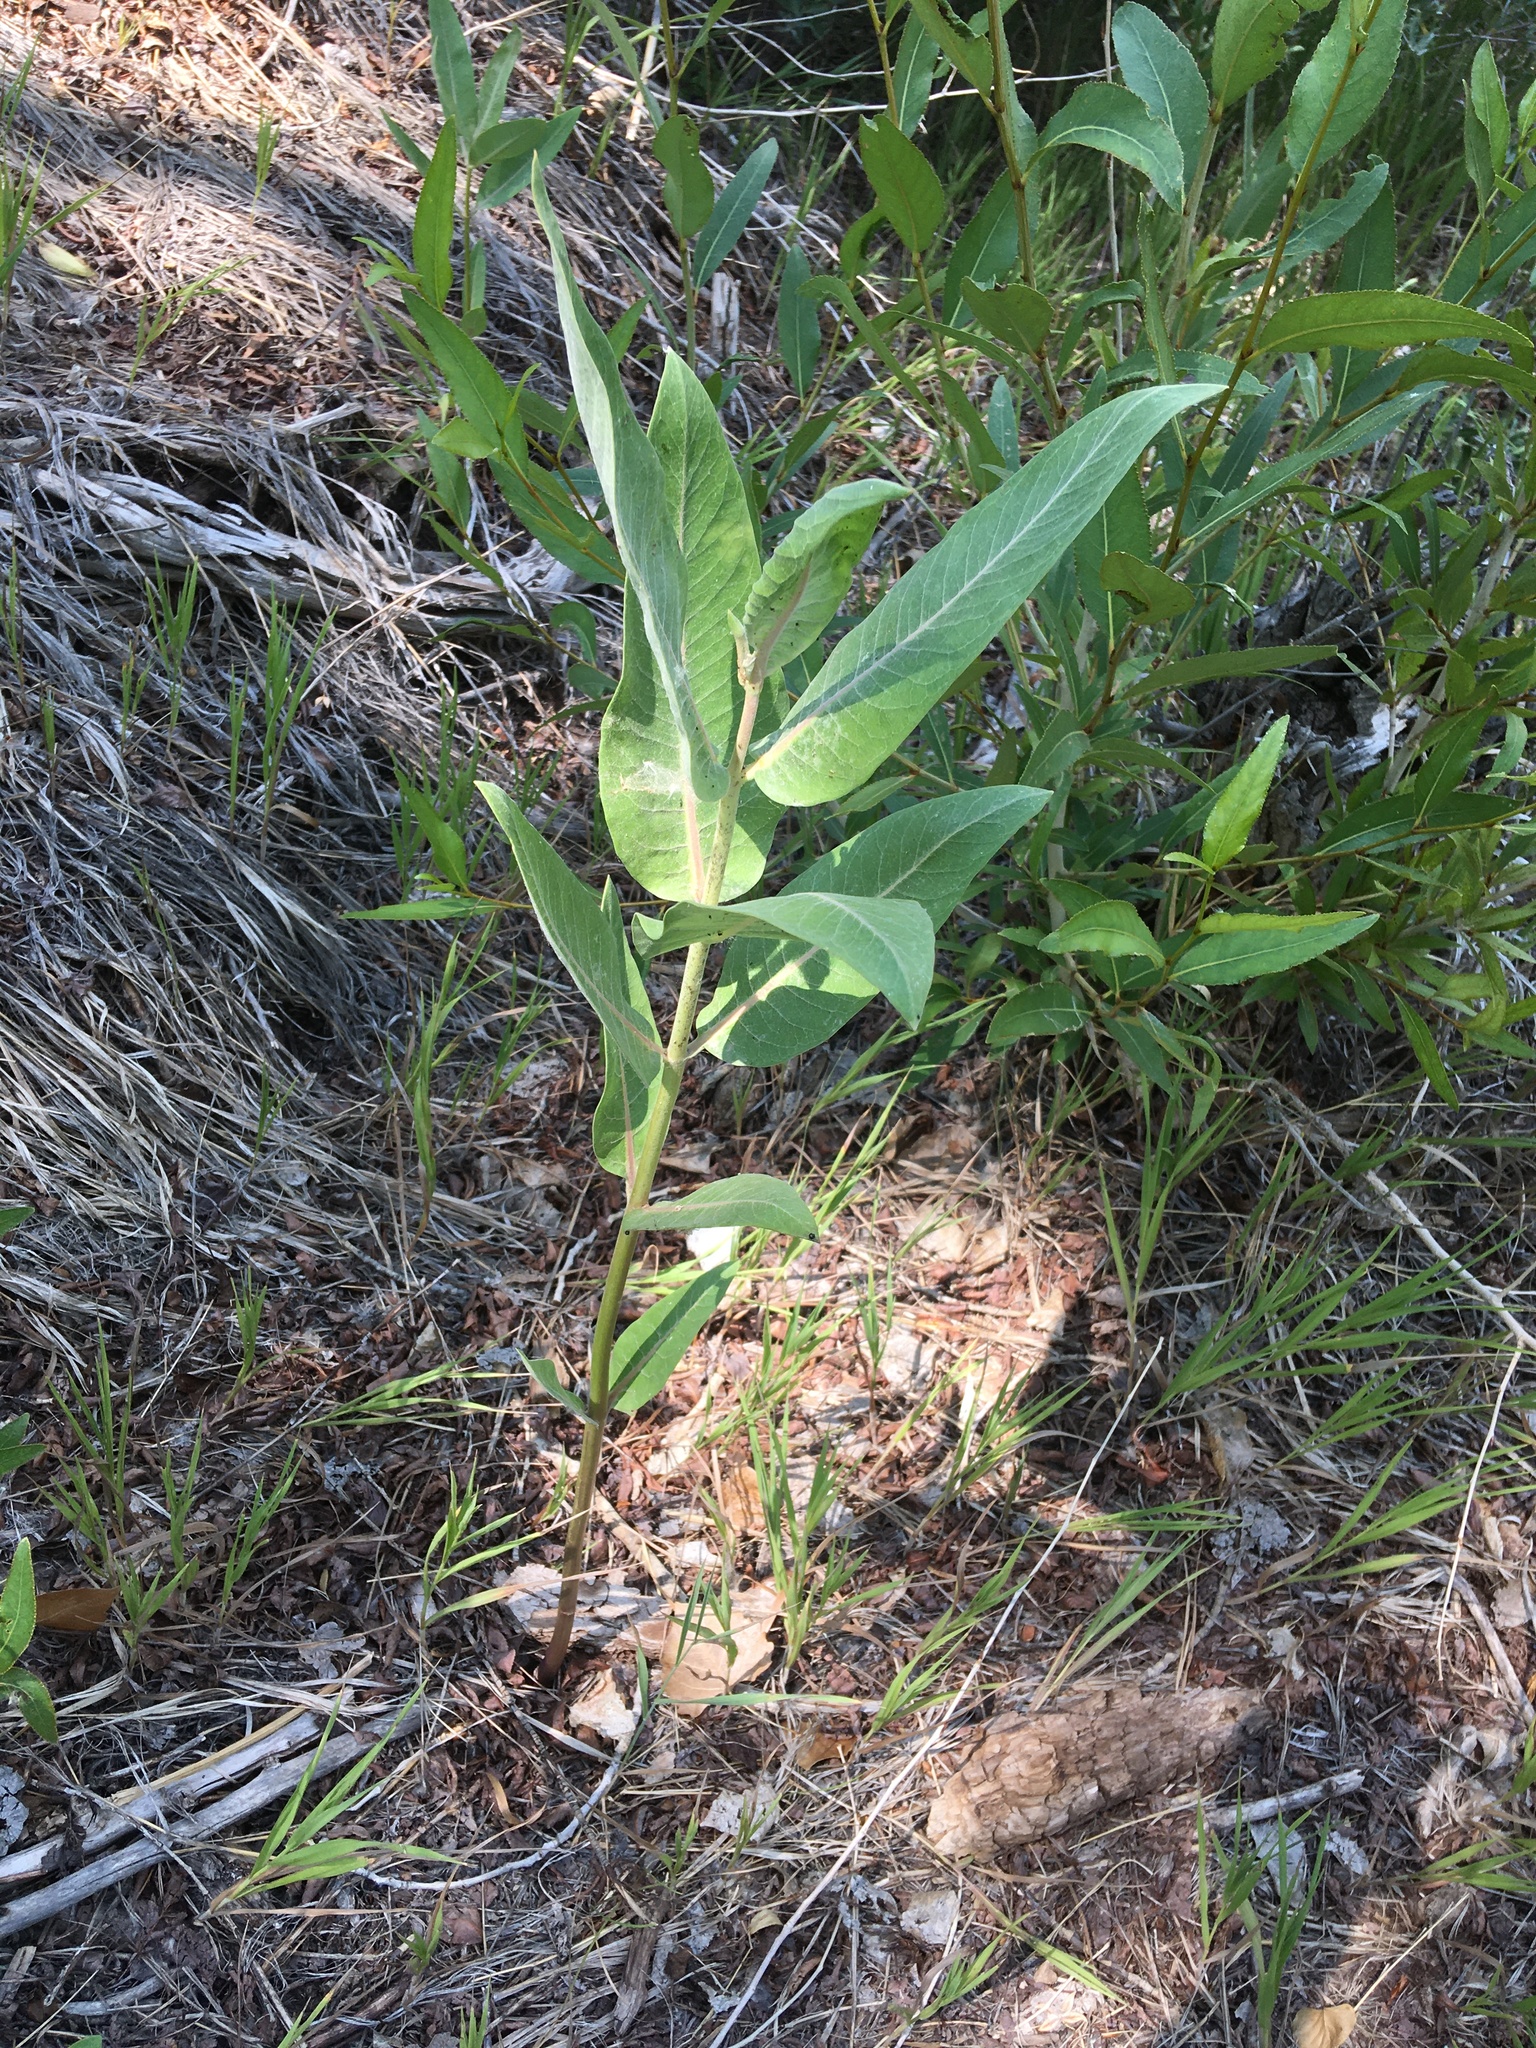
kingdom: Plantae
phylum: Tracheophyta
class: Magnoliopsida
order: Gentianales
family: Apocynaceae
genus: Asclepias
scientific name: Asclepias speciosa
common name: Showy milkweed
